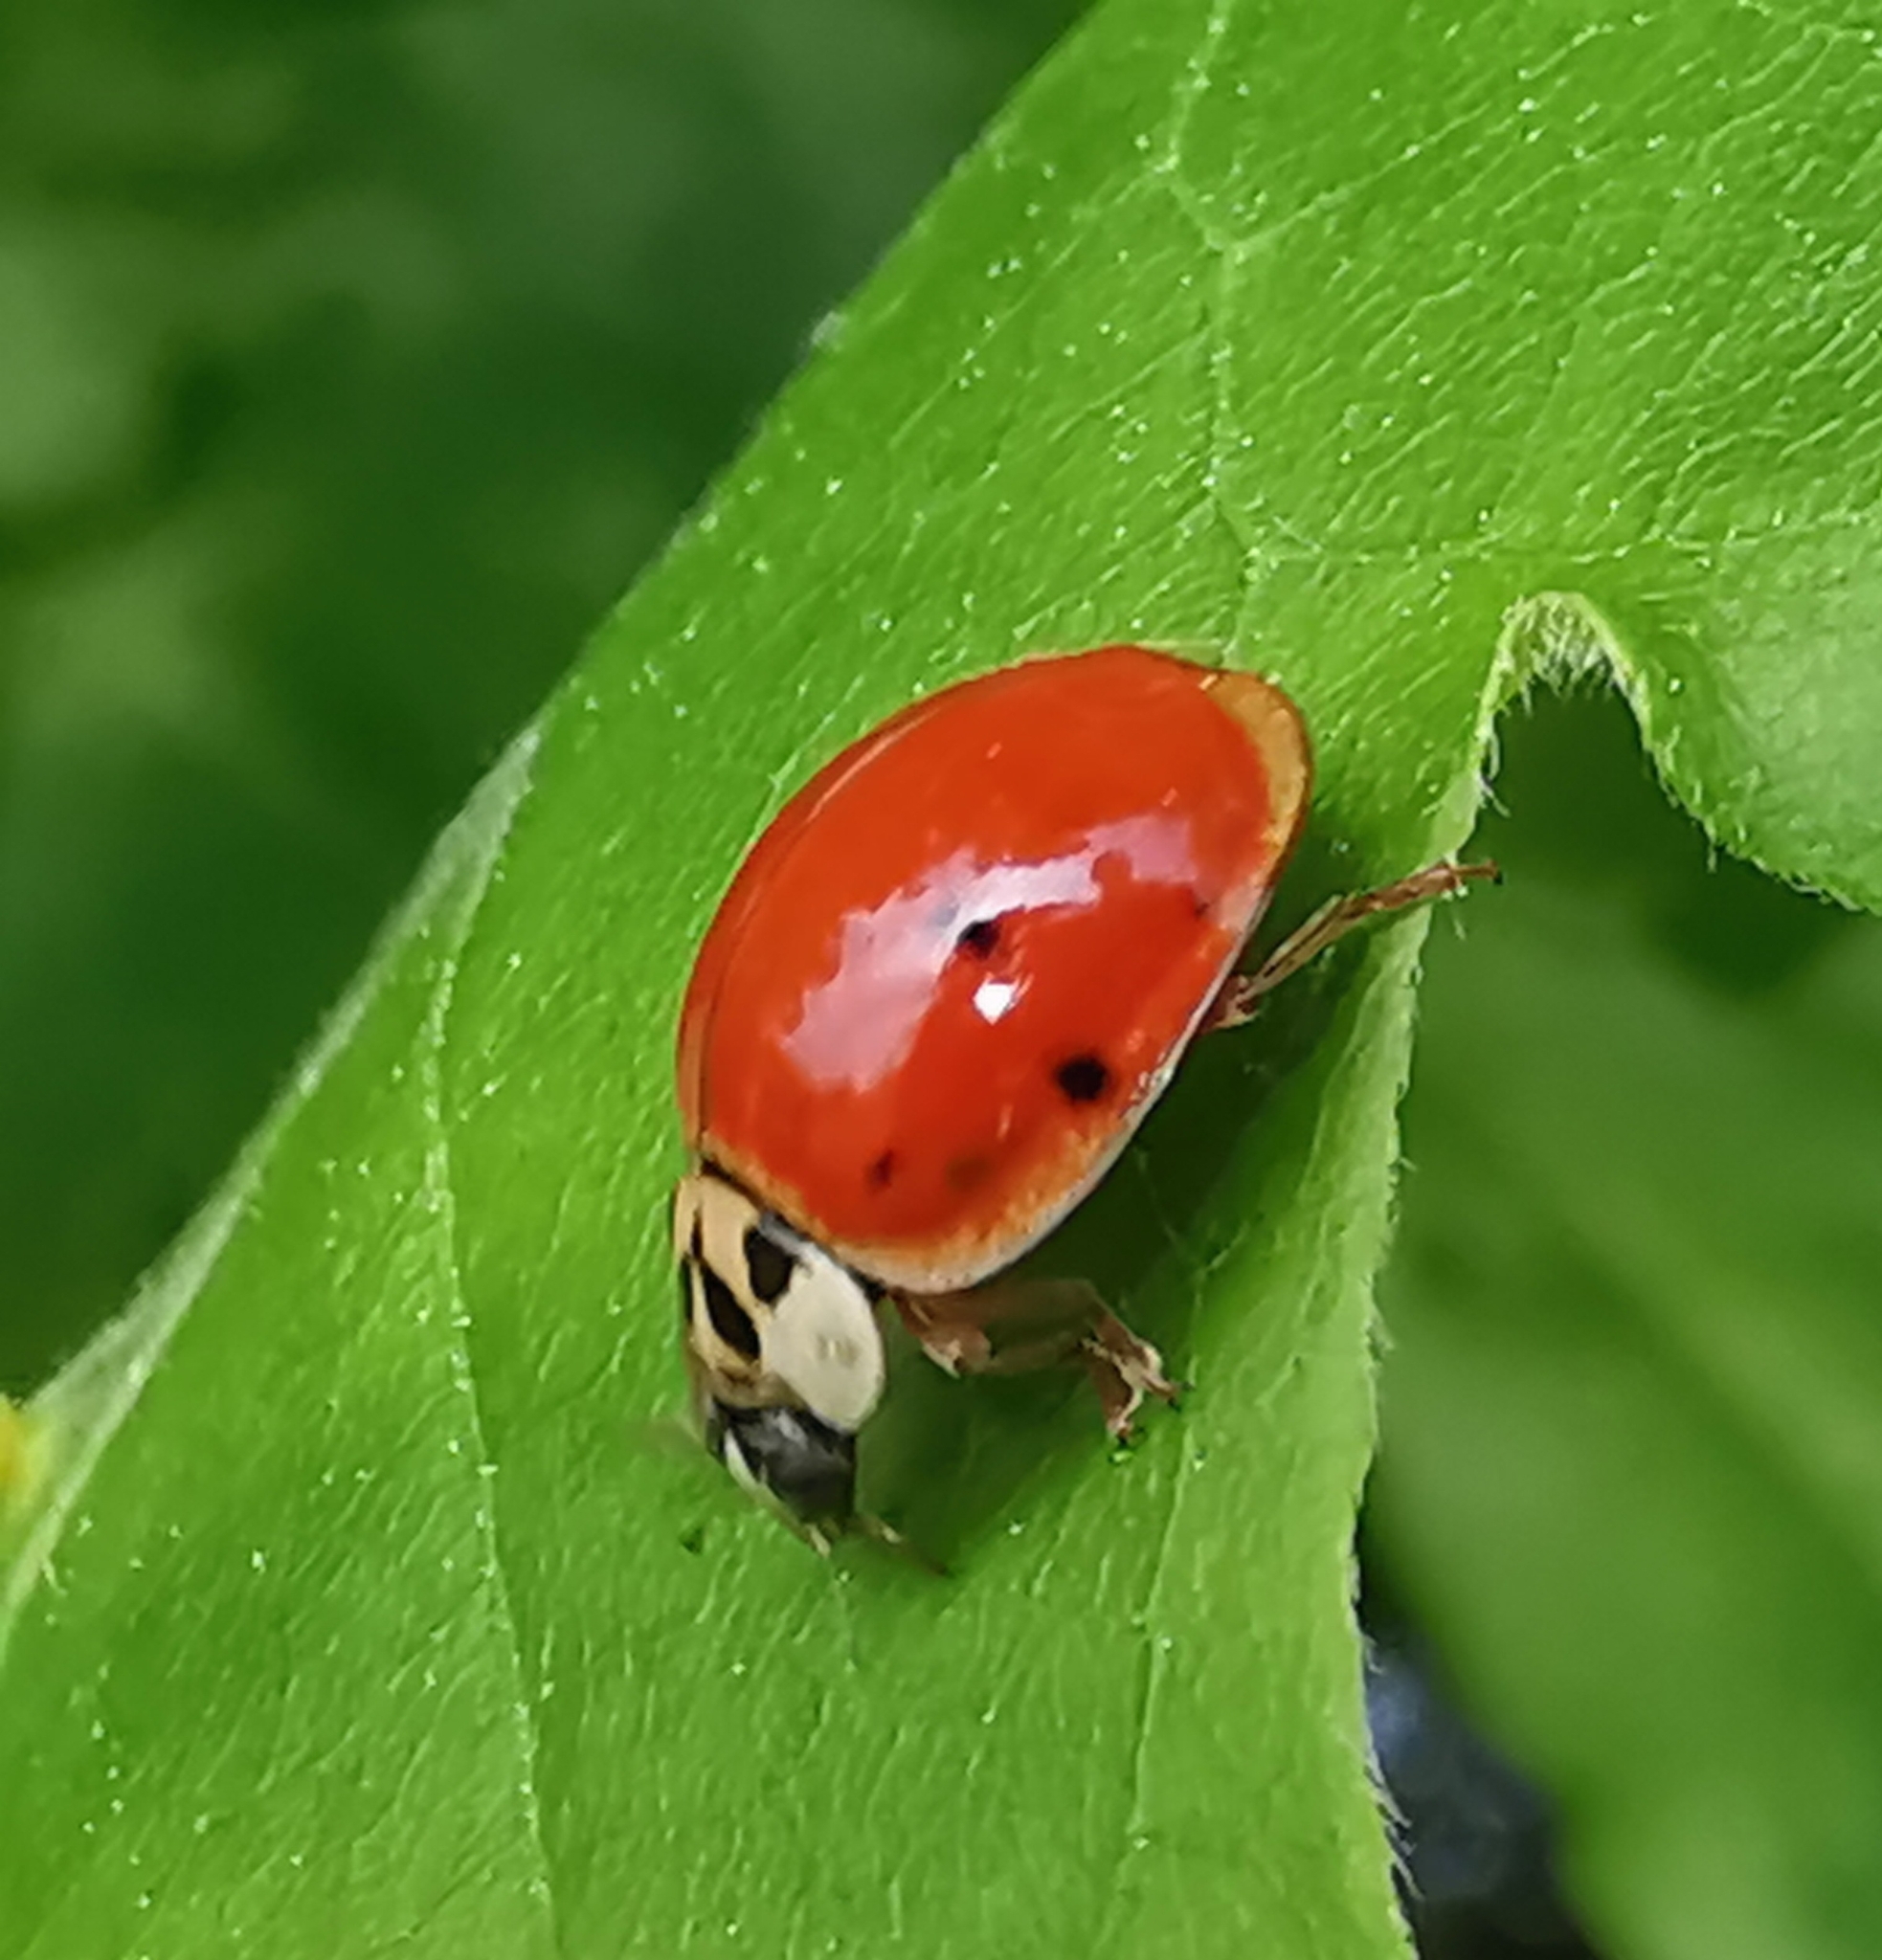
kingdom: Animalia
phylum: Arthropoda
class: Insecta
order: Coleoptera
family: Coccinellidae
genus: Harmonia
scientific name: Harmonia axyridis
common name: Harlequin ladybird
